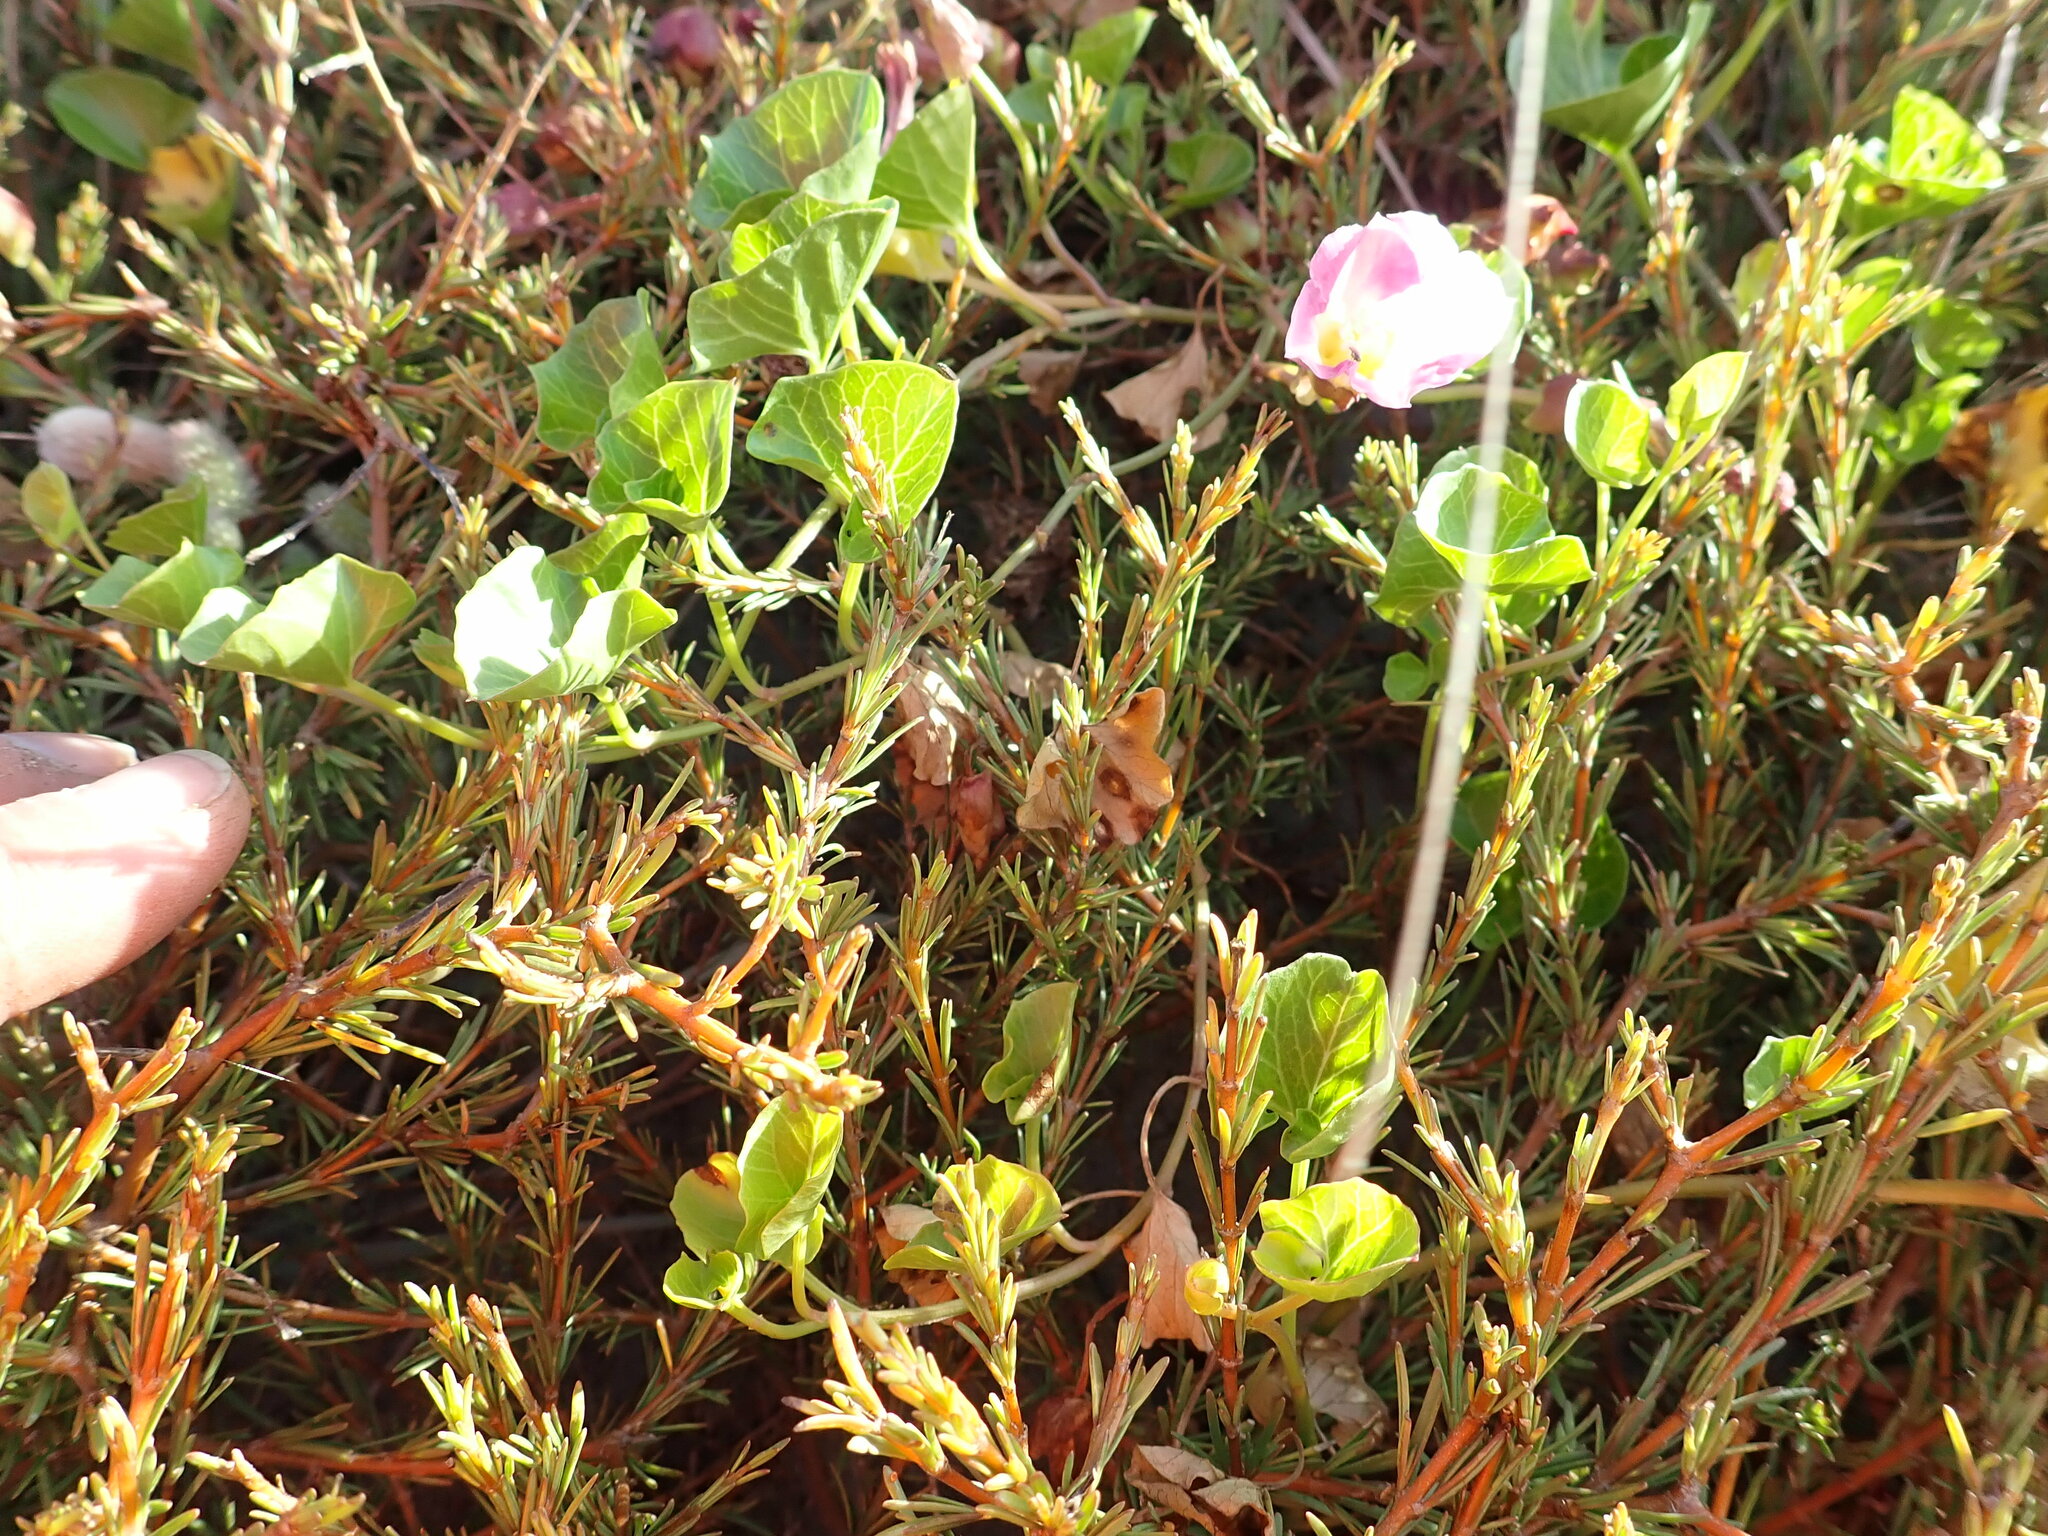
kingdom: Plantae
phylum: Tracheophyta
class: Magnoliopsida
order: Solanales
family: Convolvulaceae
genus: Calystegia
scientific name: Calystegia soldanella
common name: Sea bindweed
